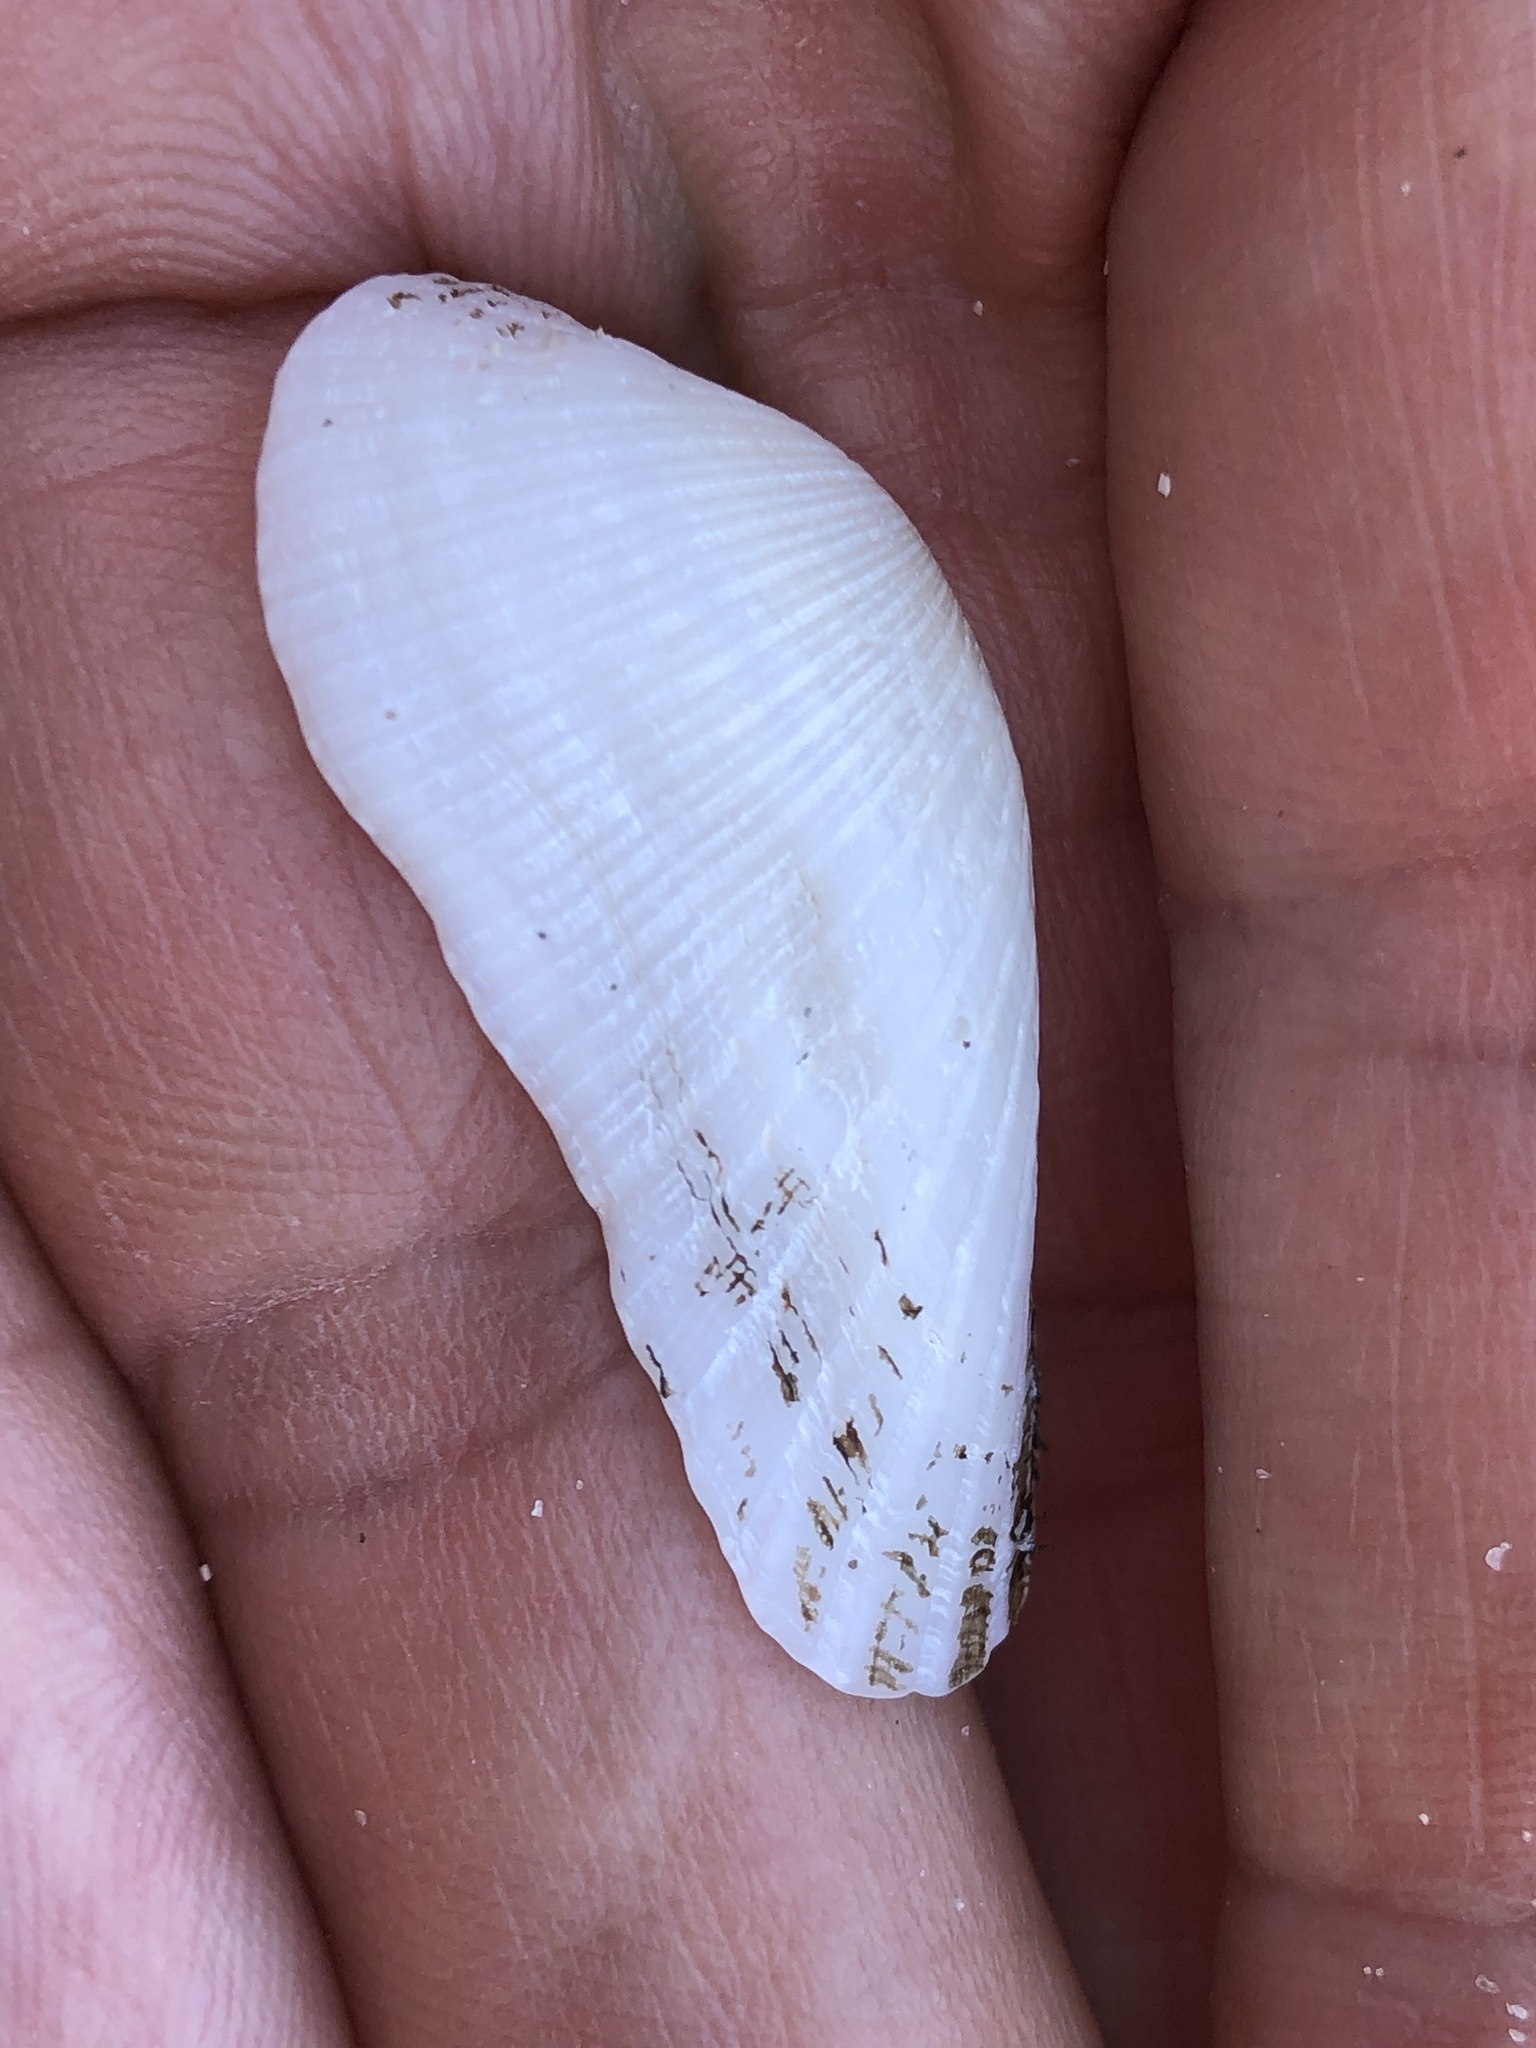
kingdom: Animalia
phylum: Mollusca
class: Bivalvia
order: Arcida
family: Arcidae
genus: Mesocibota
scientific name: Mesocibota bistrigata
